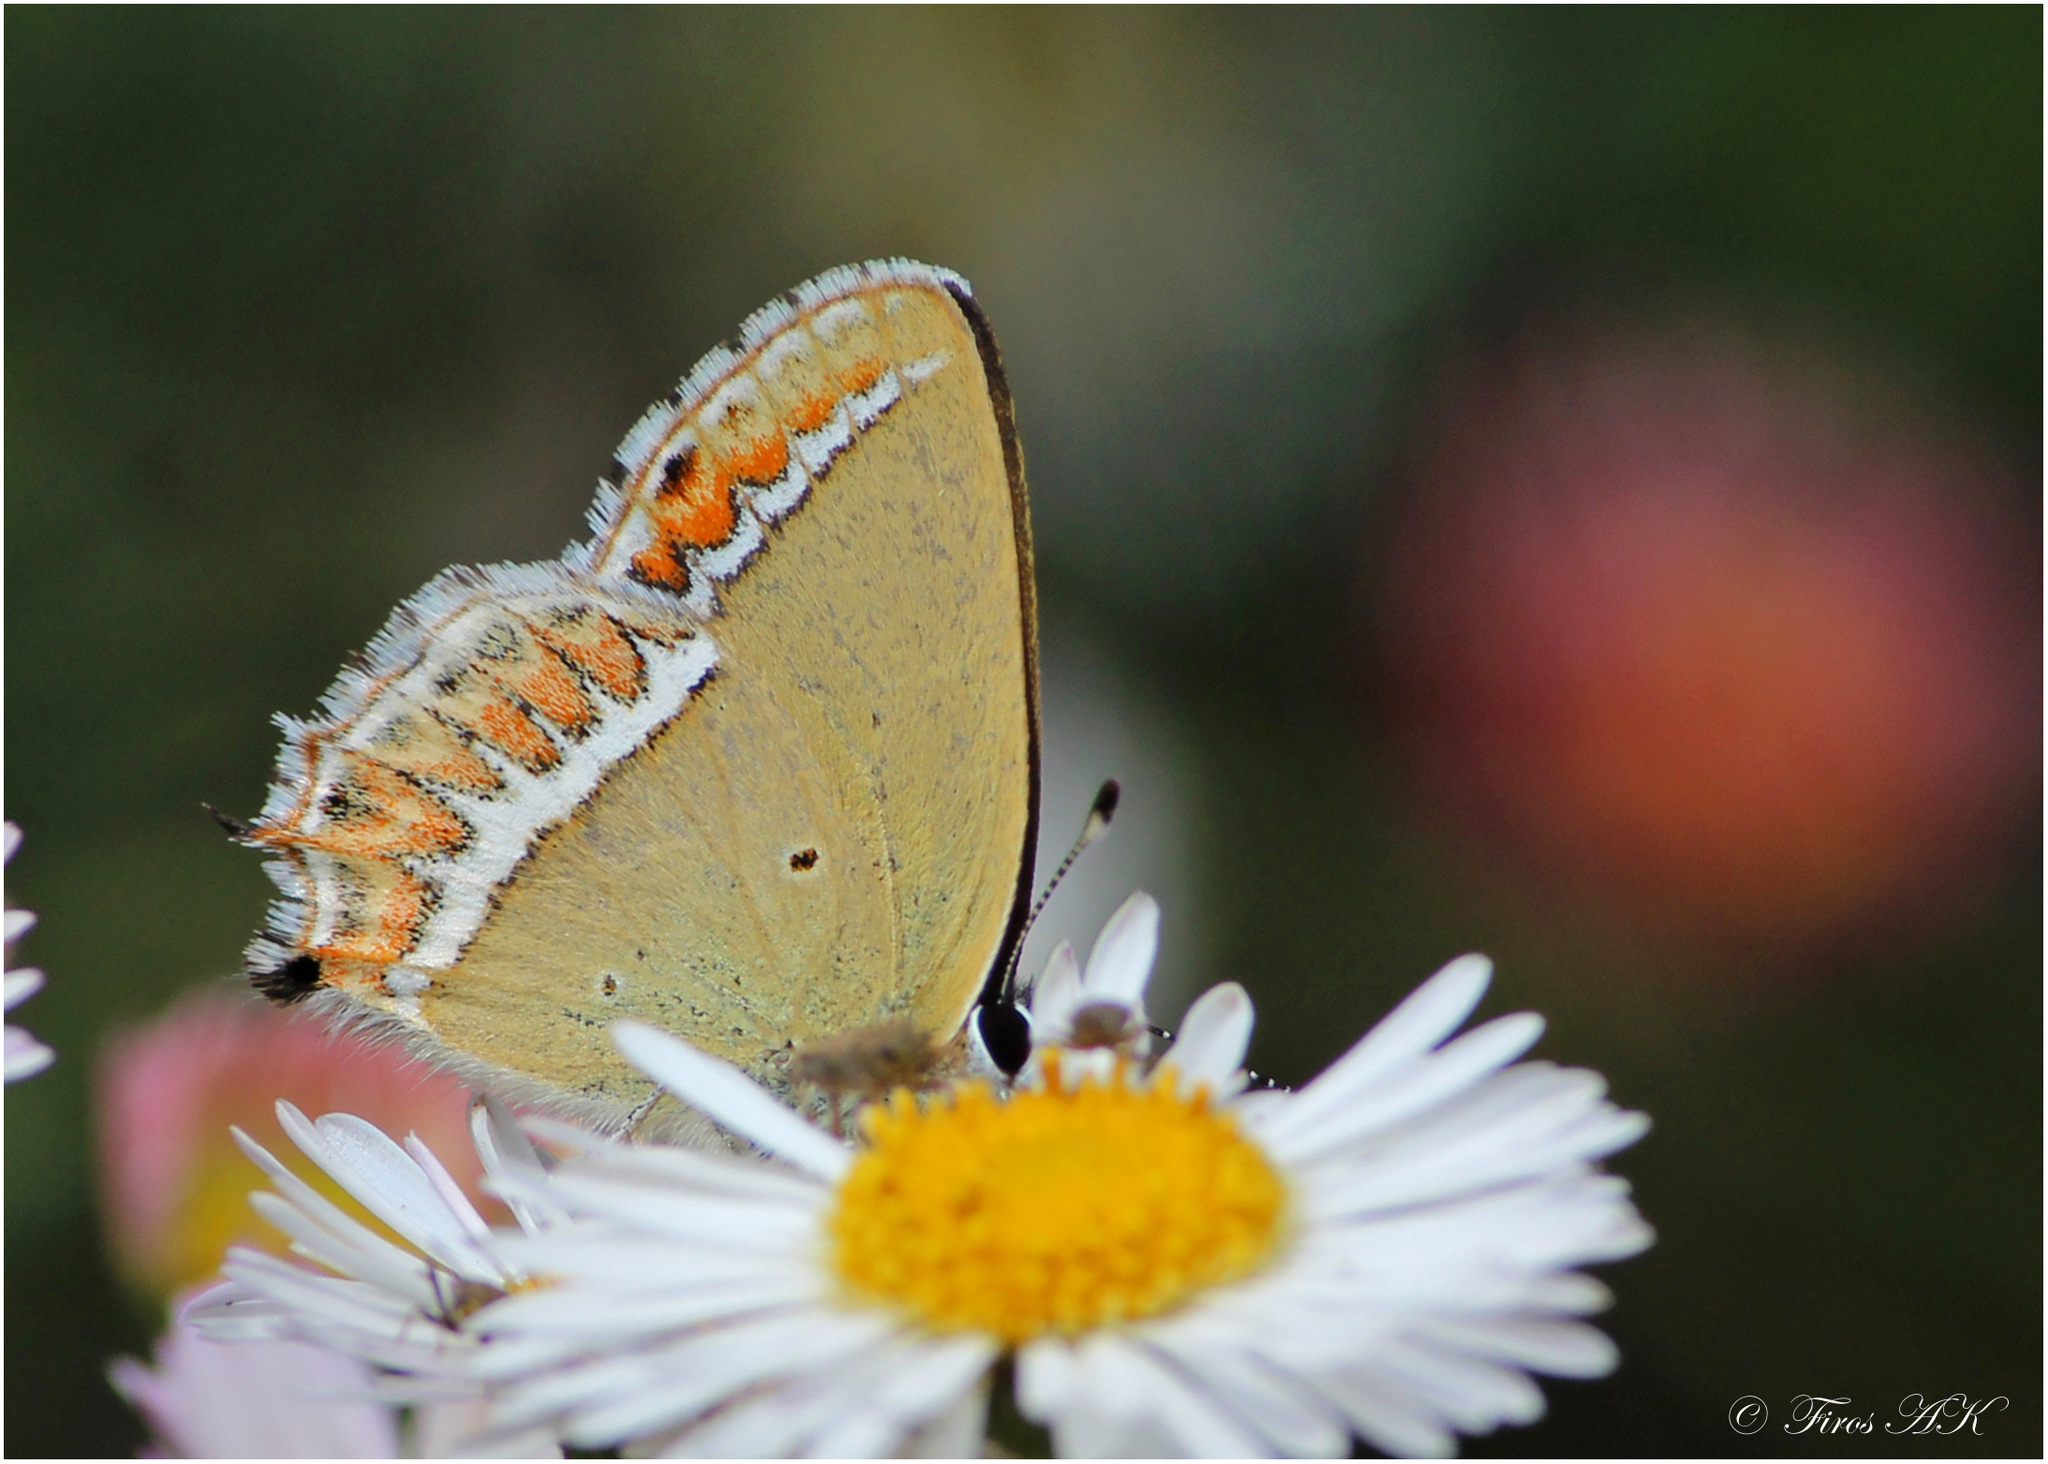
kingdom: Animalia
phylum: Arthropoda
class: Insecta
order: Lepidoptera
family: Lycaenidae
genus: Heliophorus
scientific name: Heliophorus sena
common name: Sorrel sapphire
